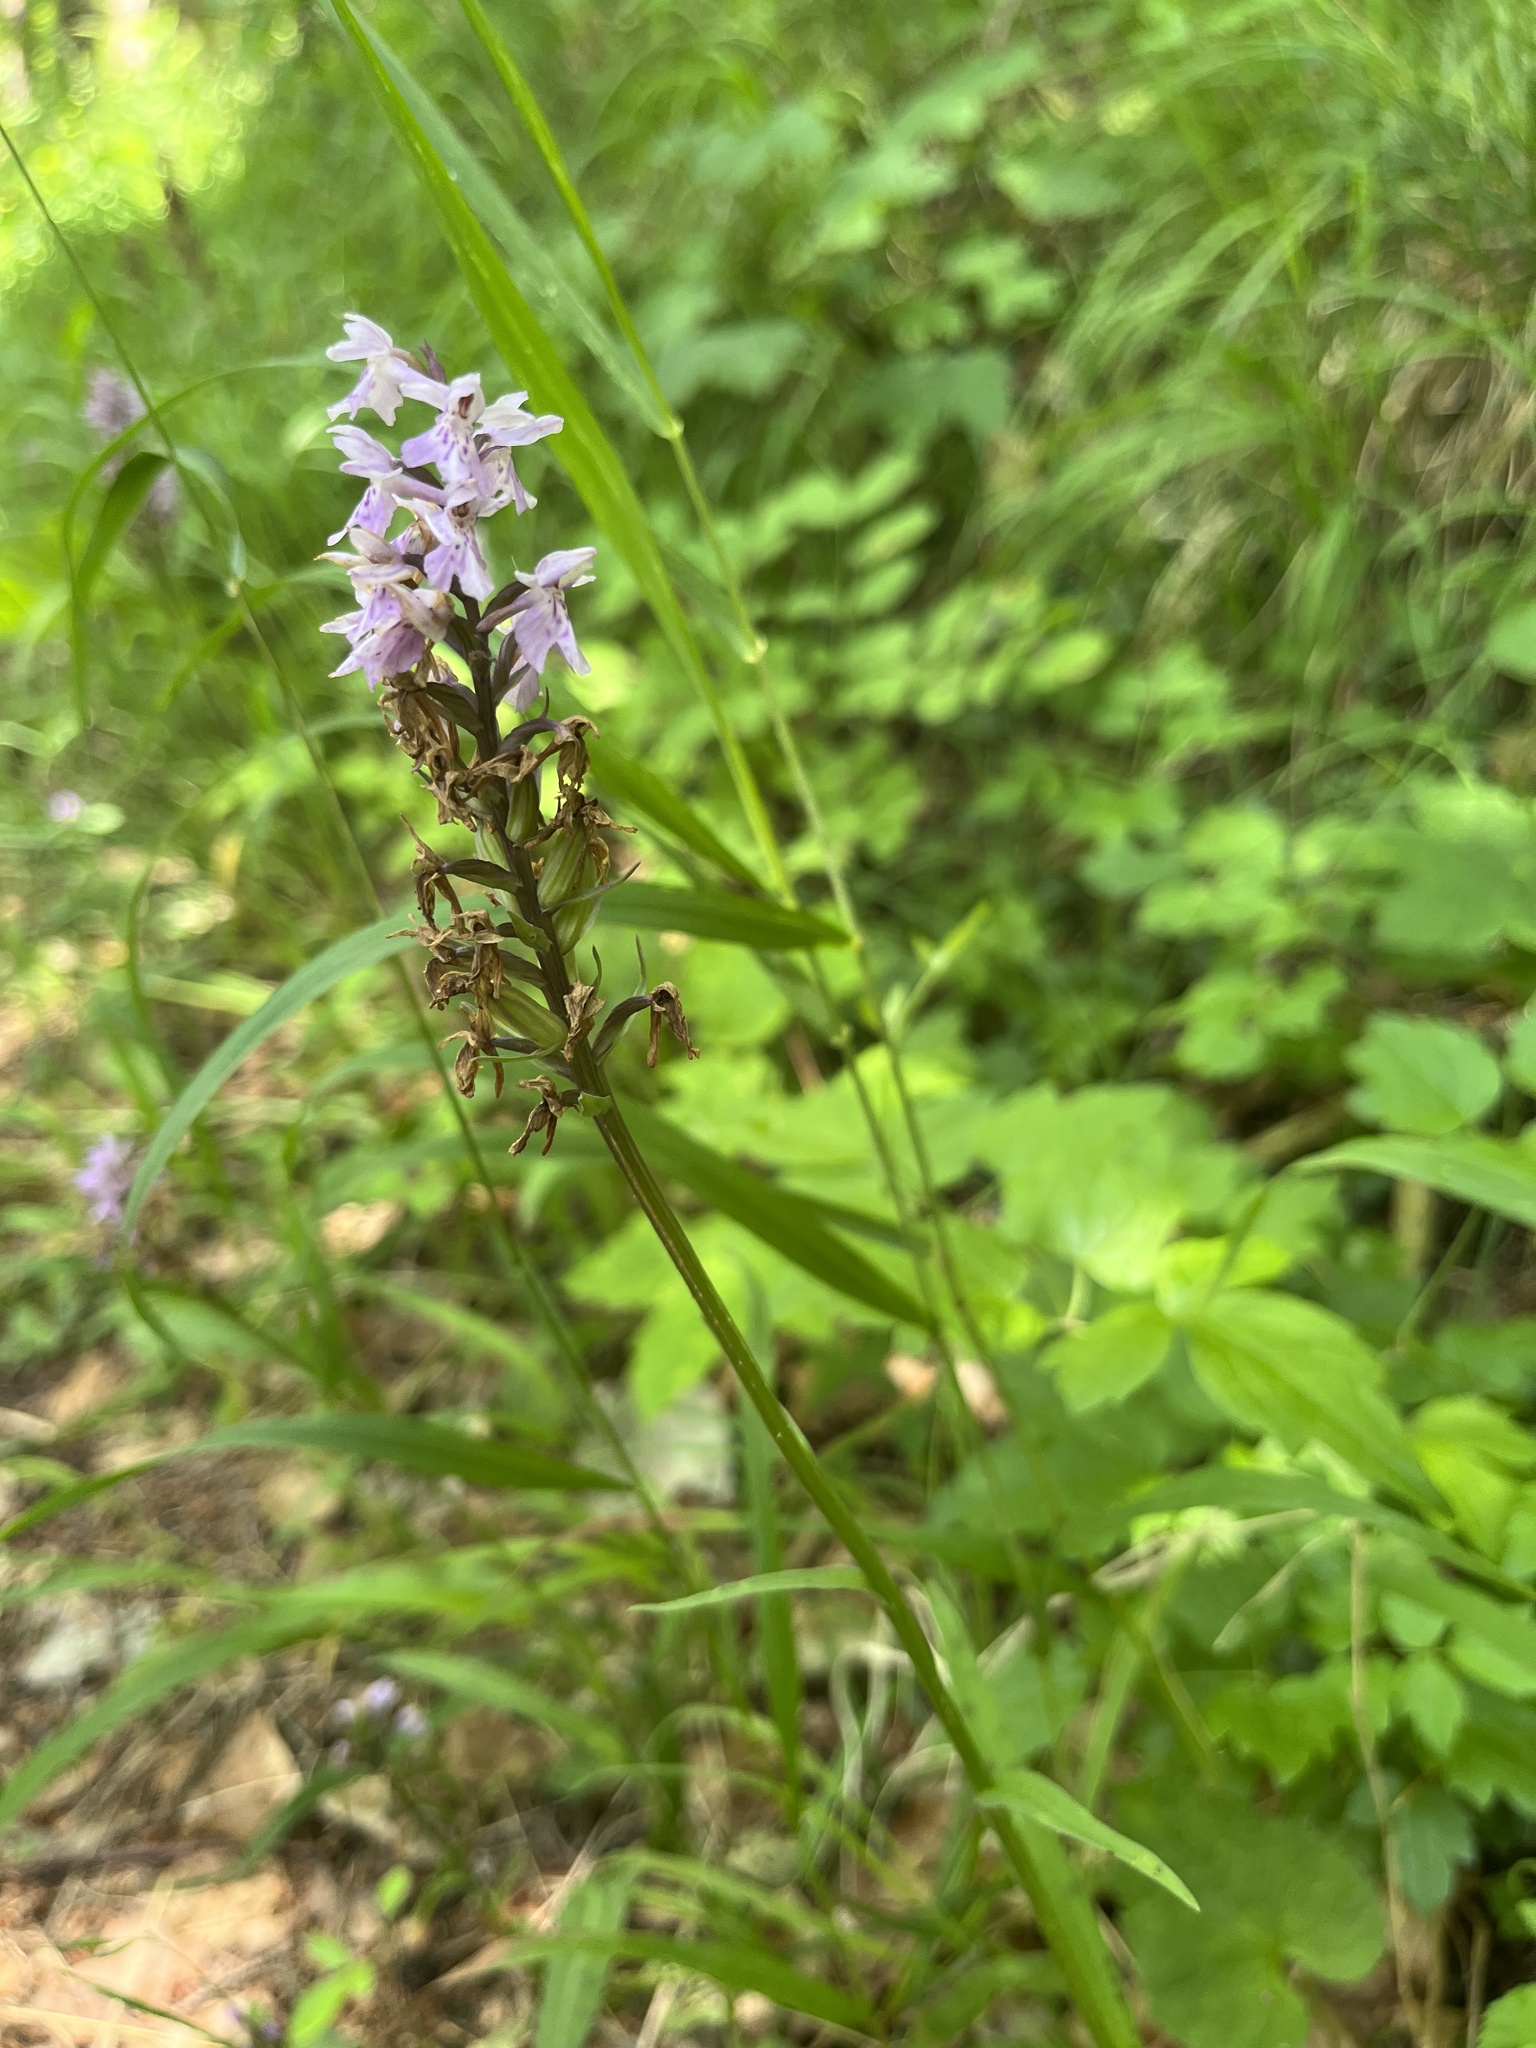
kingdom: Plantae
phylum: Tracheophyta
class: Liliopsida
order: Asparagales
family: Orchidaceae
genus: Dactylorhiza
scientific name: Dactylorhiza maculata
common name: Heath spotted-orchid
